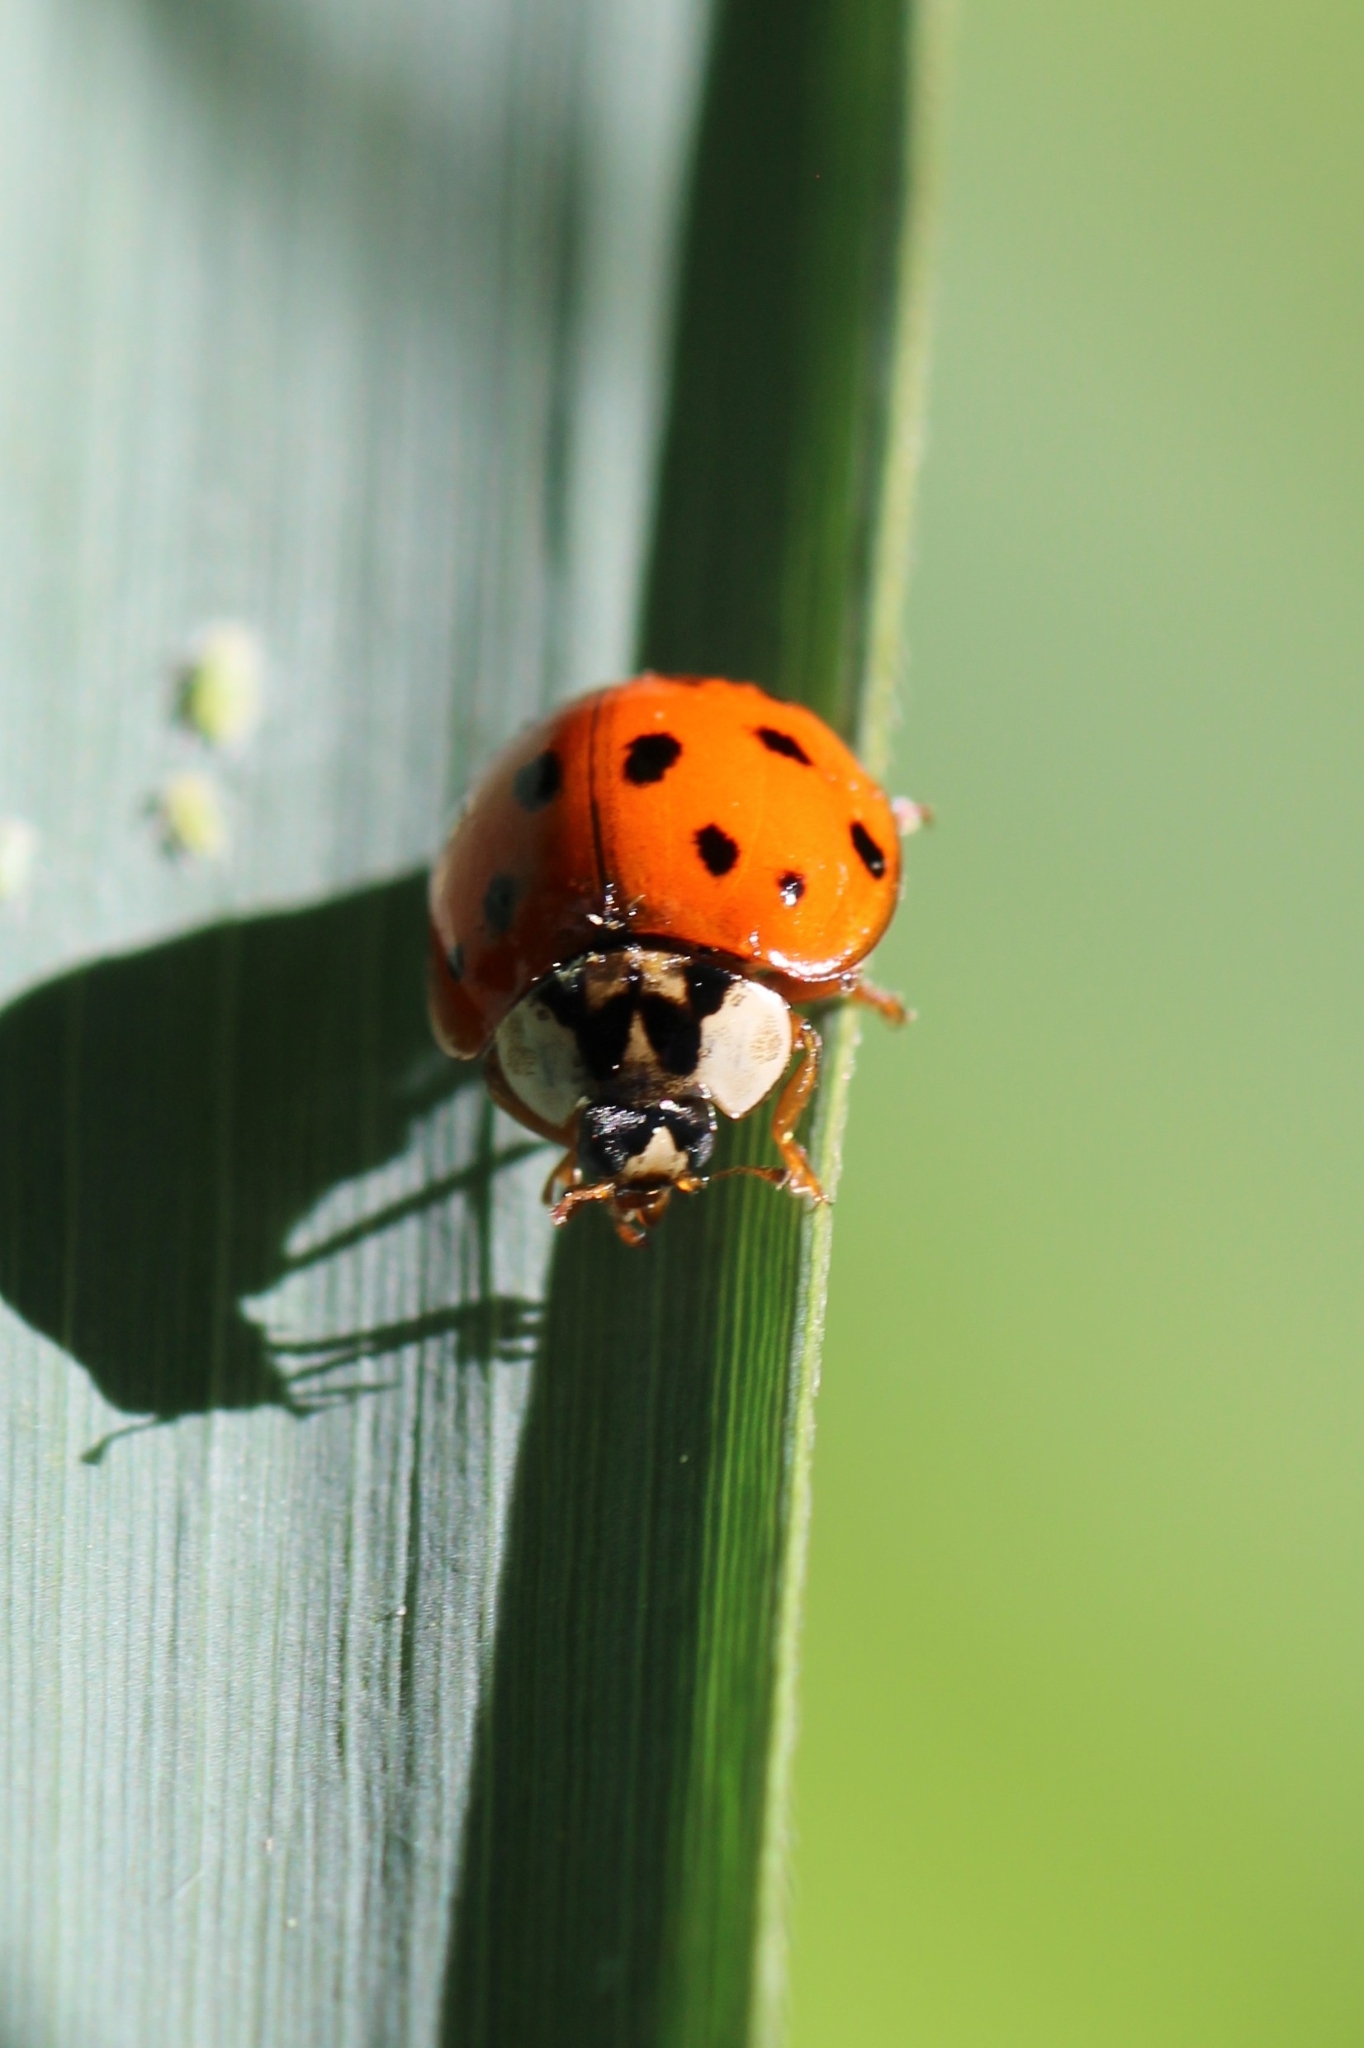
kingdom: Animalia
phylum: Arthropoda
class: Insecta
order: Coleoptera
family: Coccinellidae
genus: Harmonia
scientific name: Harmonia axyridis
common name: Harlequin ladybird
